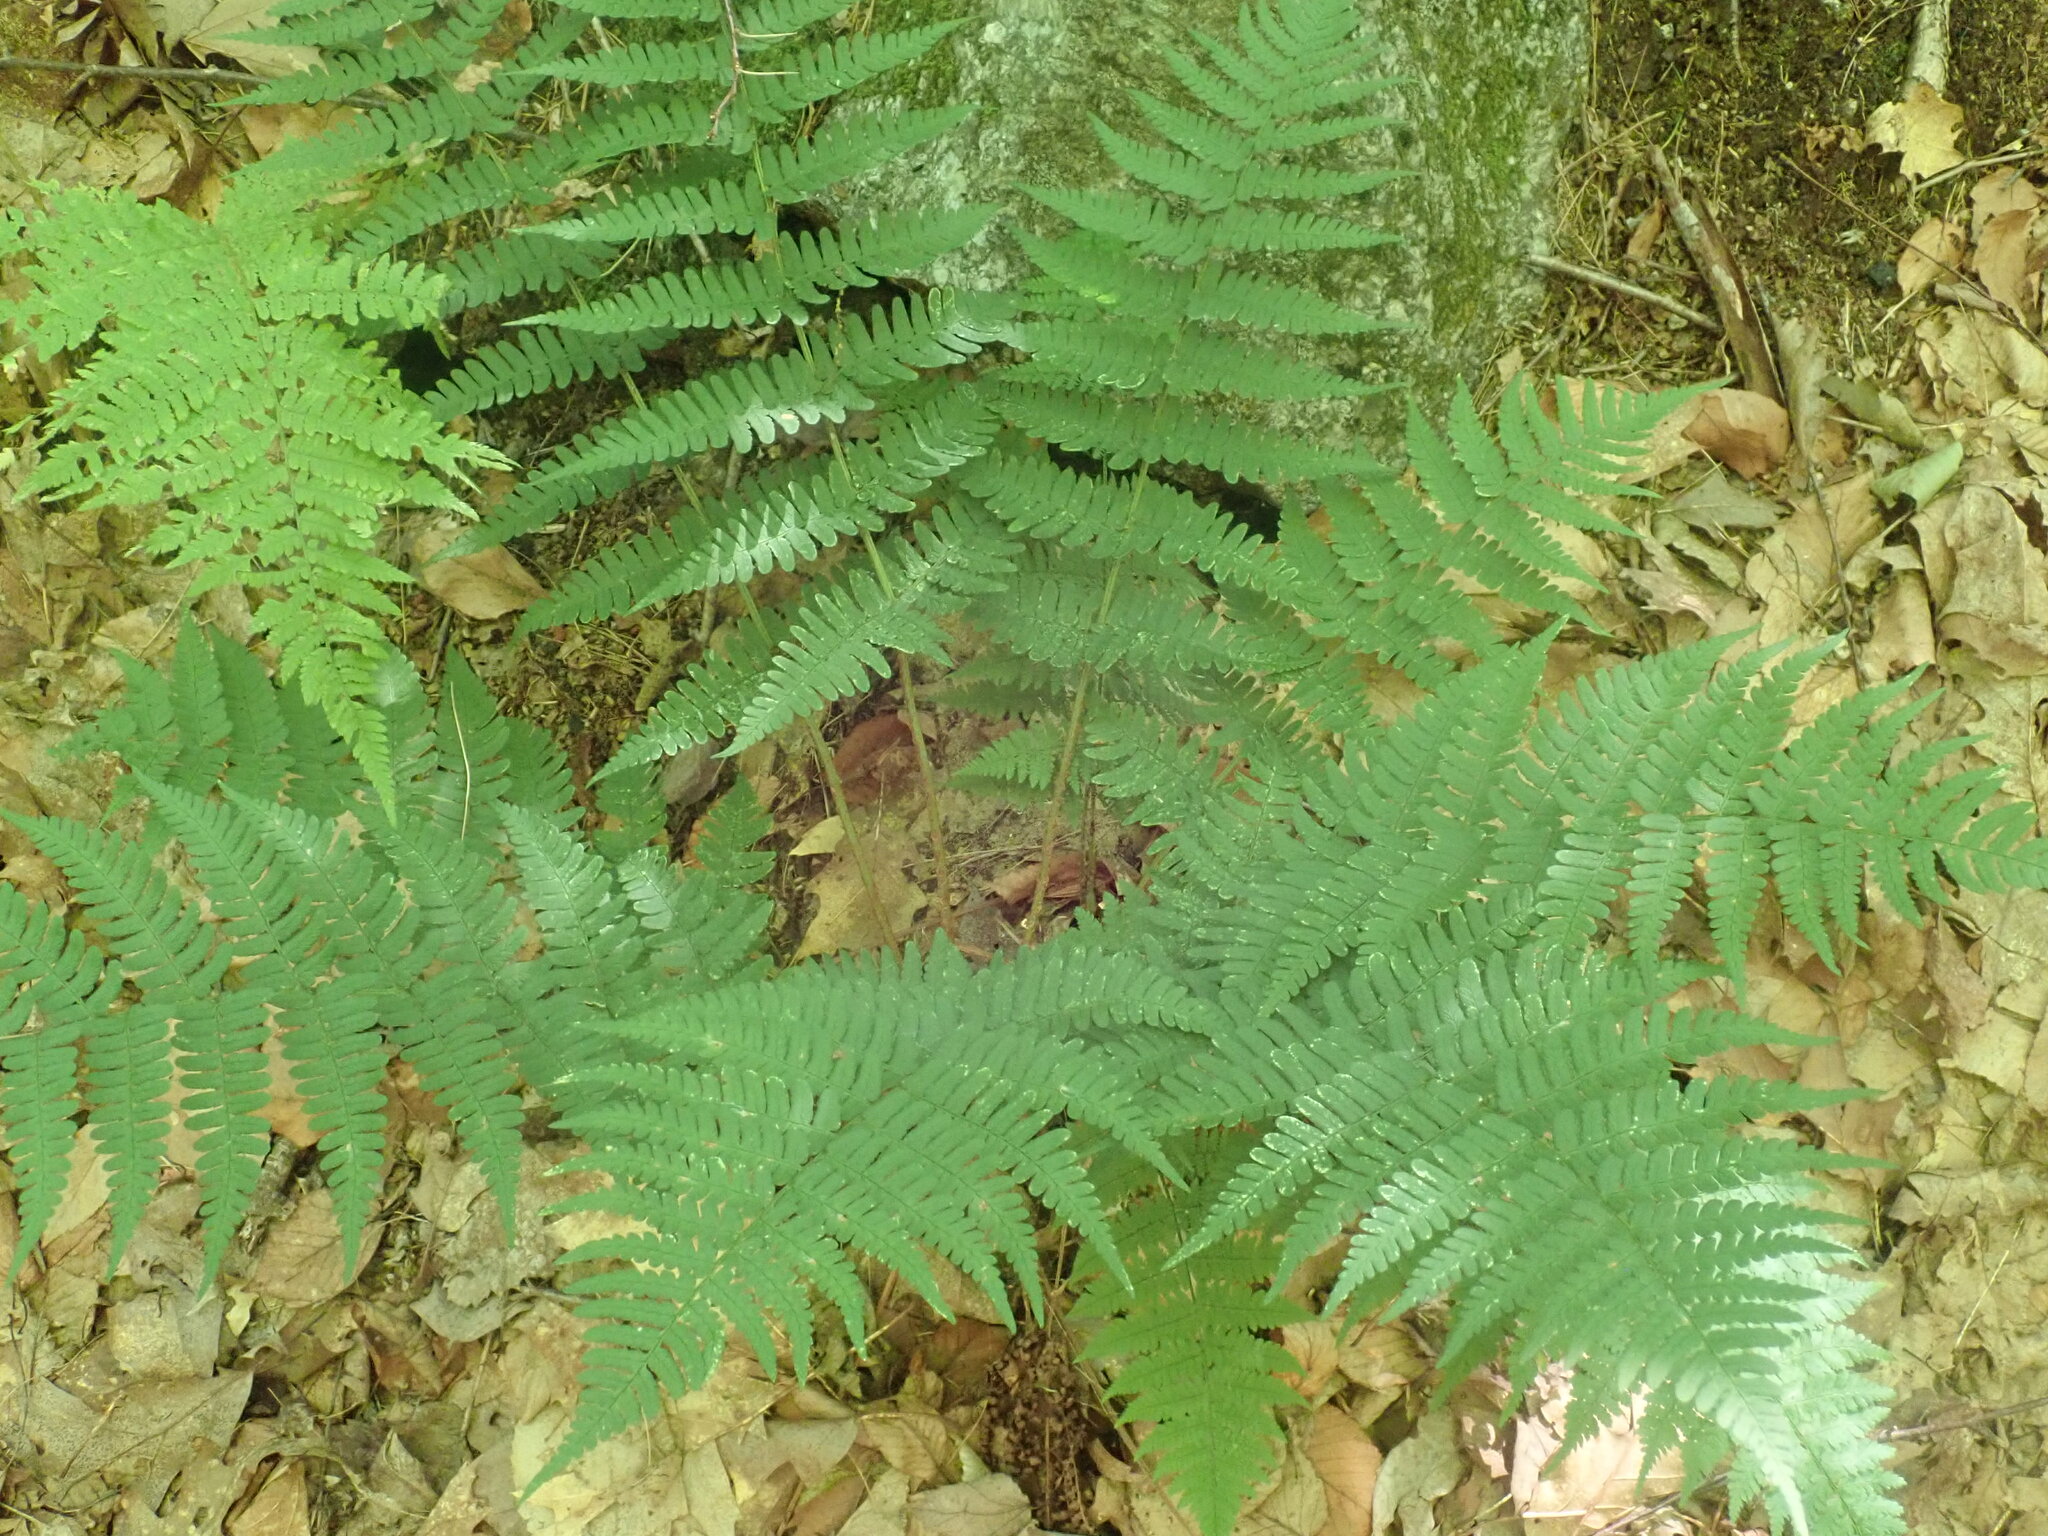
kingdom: Plantae
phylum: Tracheophyta
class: Polypodiopsida
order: Polypodiales
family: Dryopteridaceae
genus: Dryopteris
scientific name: Dryopteris marginalis
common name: Marginal wood fern
